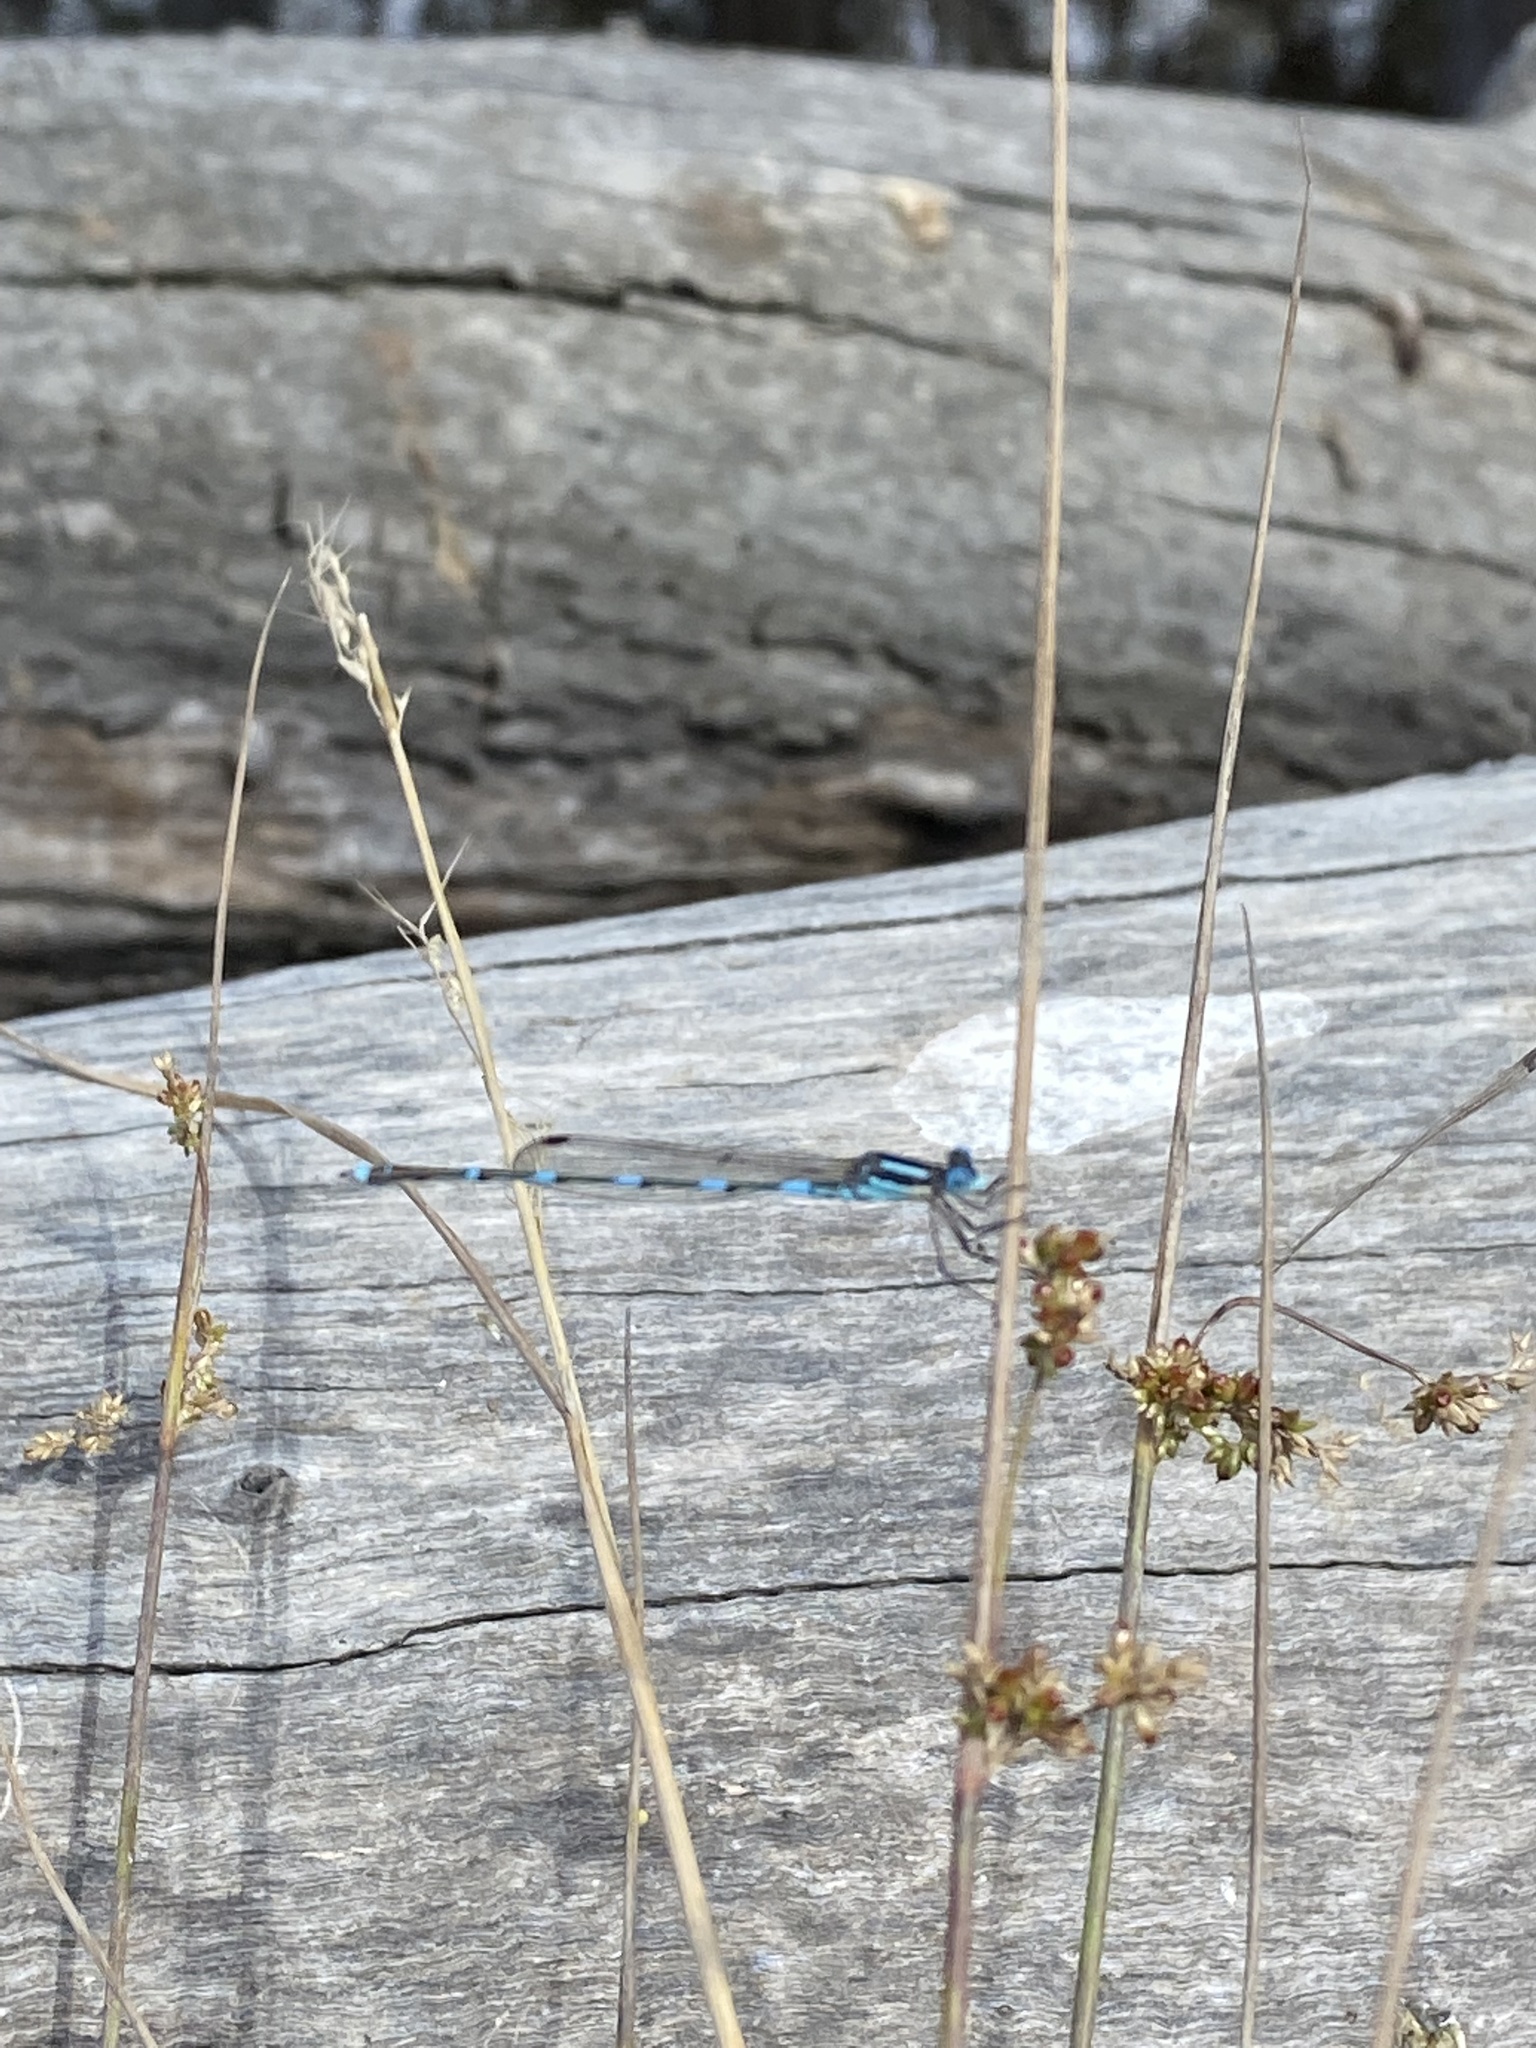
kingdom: Animalia
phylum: Arthropoda
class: Insecta
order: Odonata
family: Lestidae
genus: Austrolestes
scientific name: Austrolestes leda
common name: Wandering ringtail
